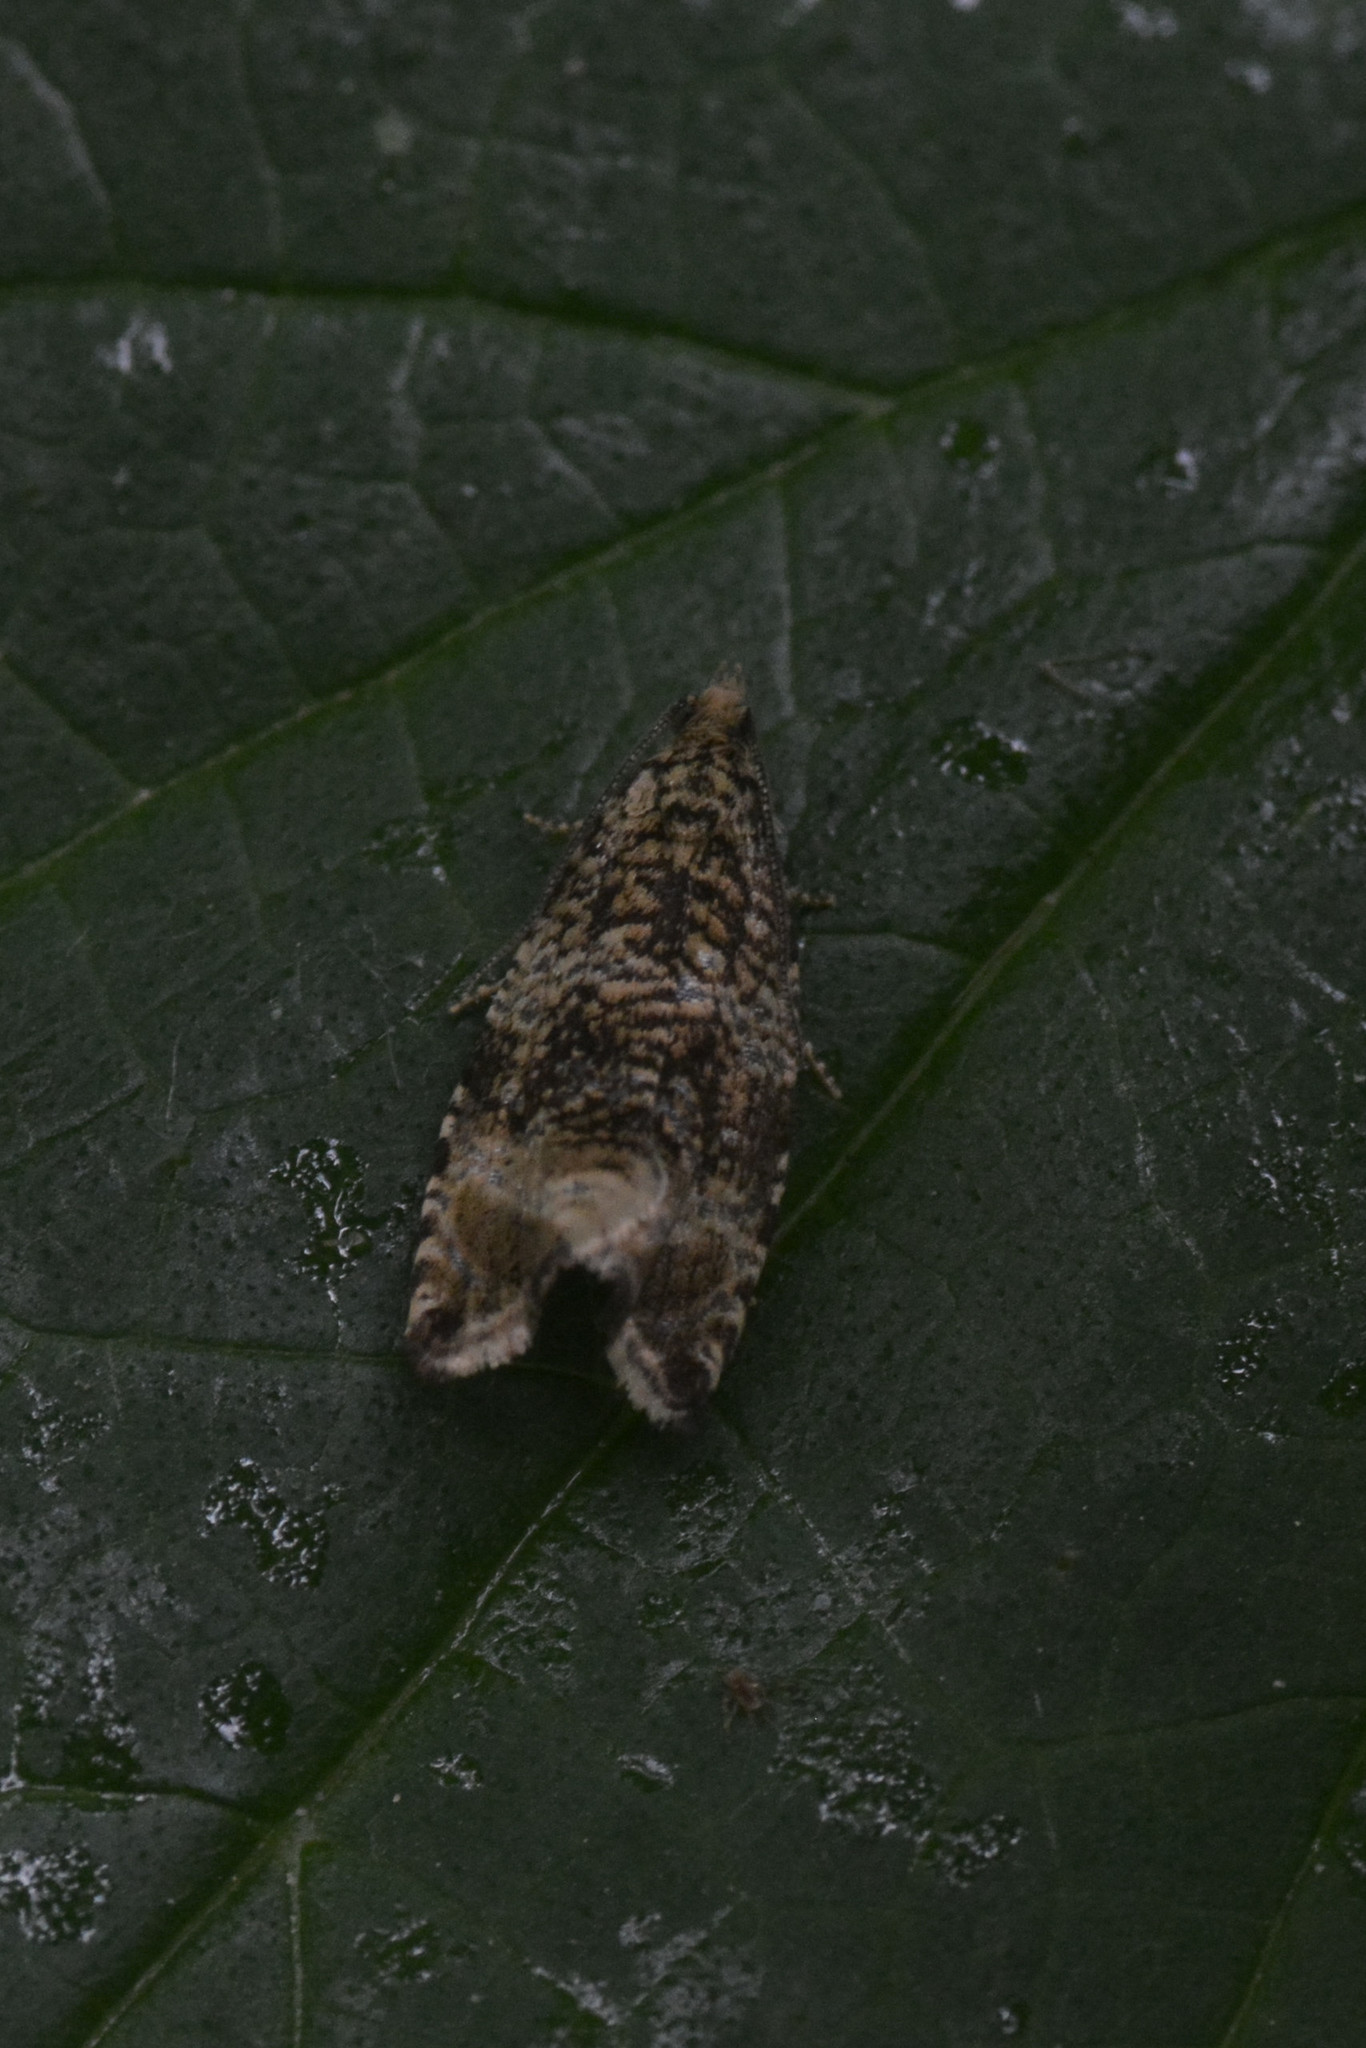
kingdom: Animalia
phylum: Arthropoda
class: Insecta
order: Lepidoptera
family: Tortricidae
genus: Syricoris
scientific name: Syricoris lacunana
